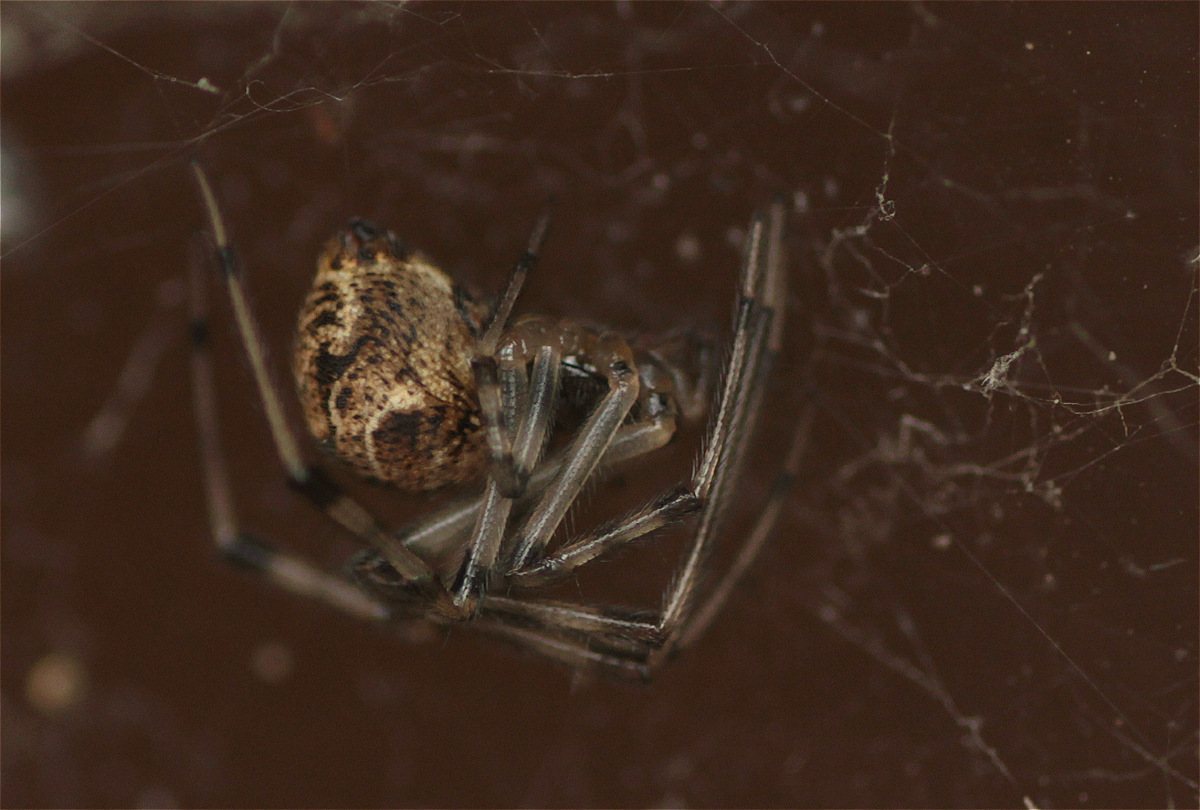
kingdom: Animalia
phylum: Arthropoda
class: Arachnida
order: Araneae
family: Theridiidae
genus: Parasteatoda
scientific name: Parasteatoda tepidariorum
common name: Common house spider
